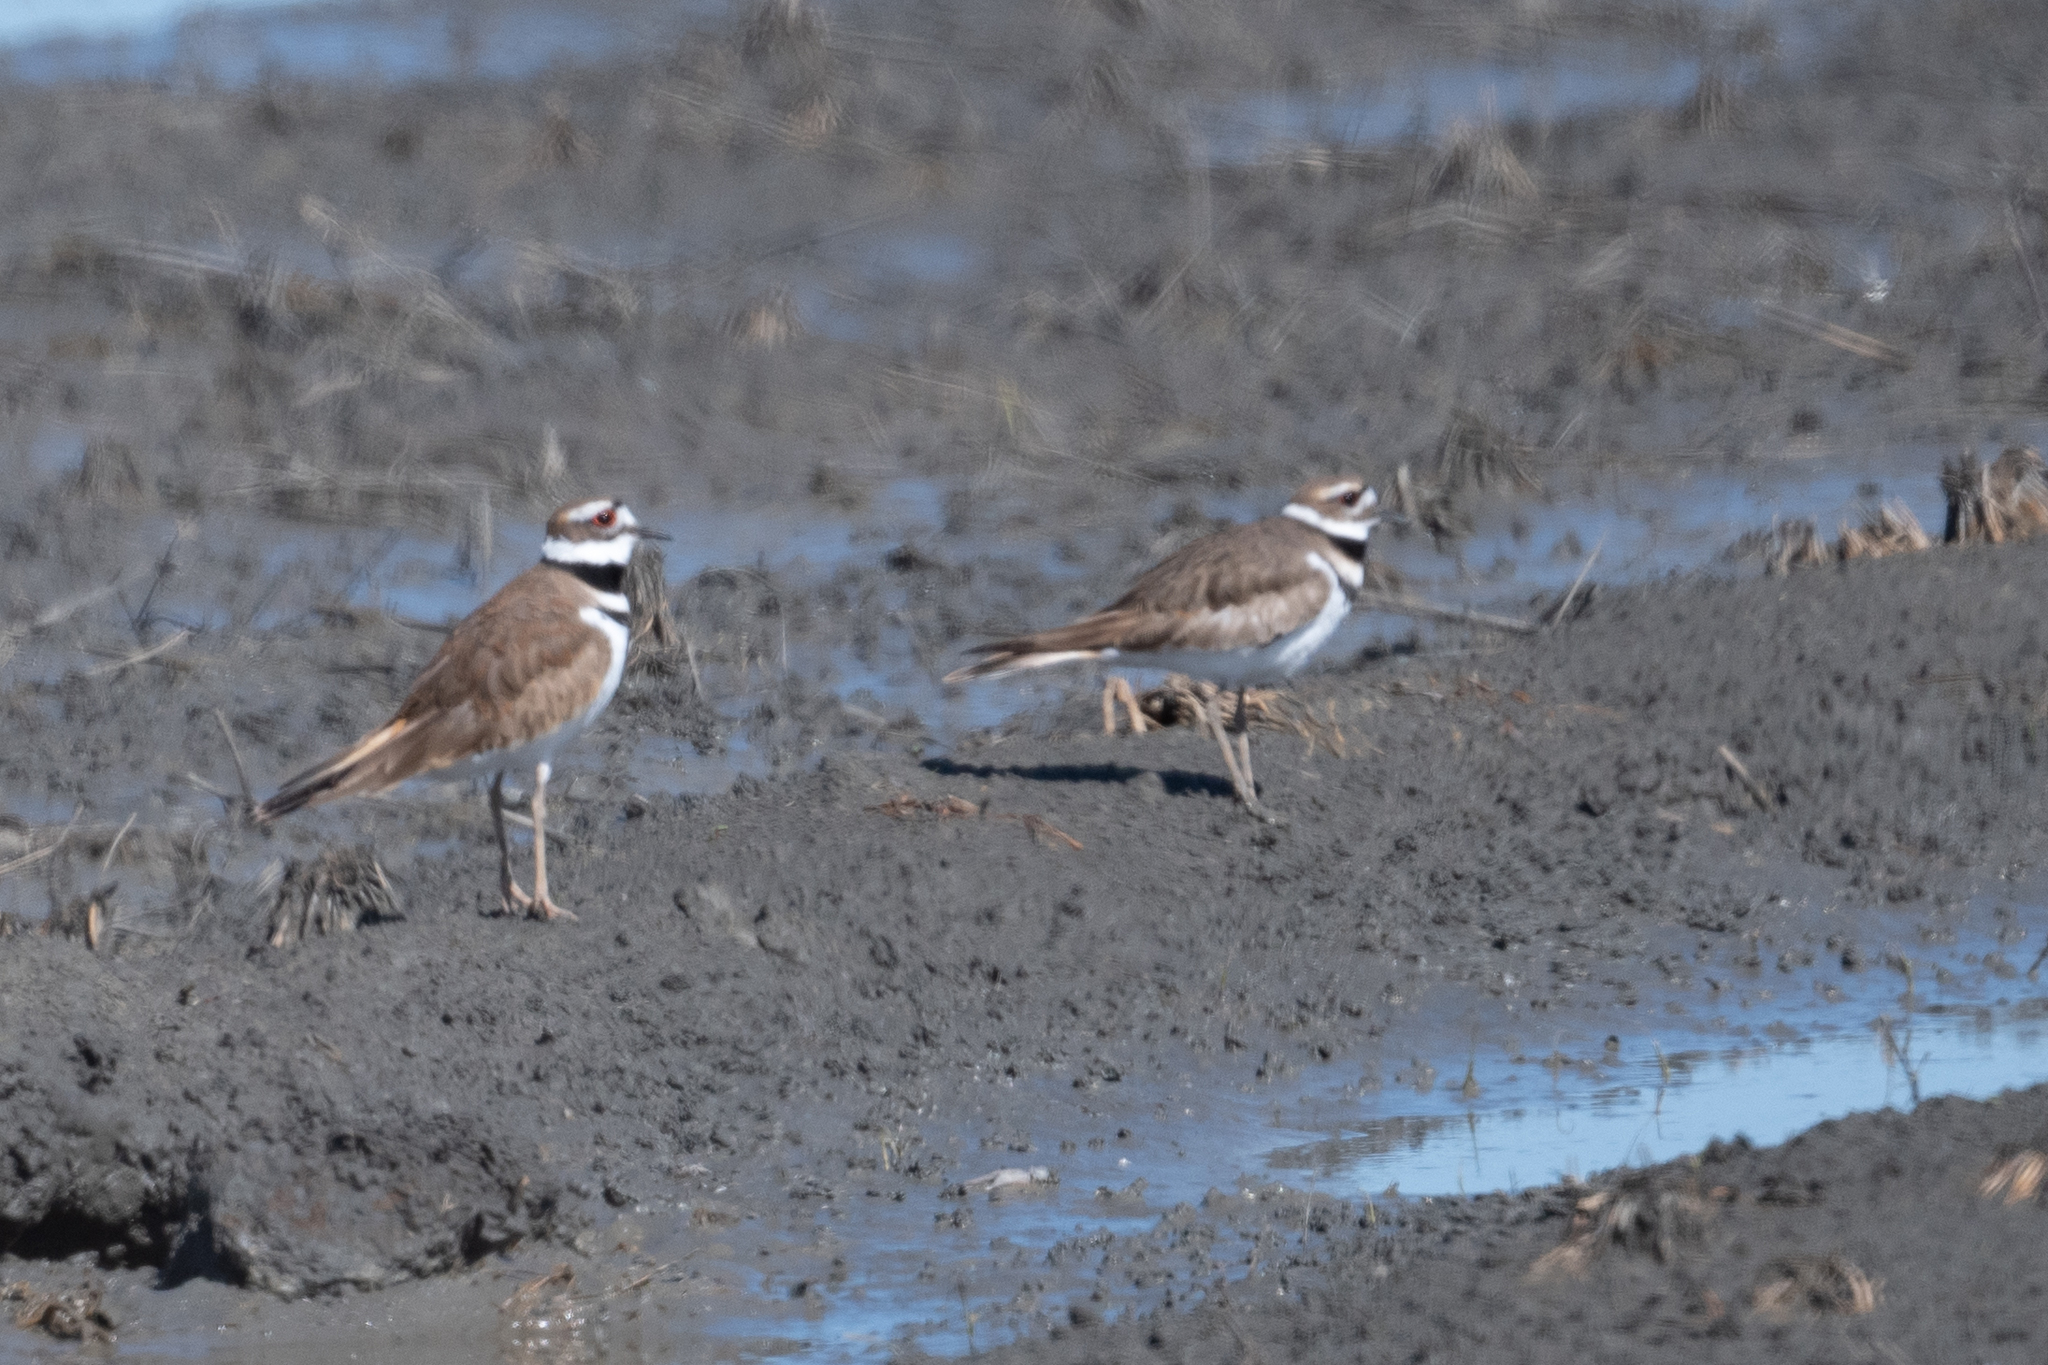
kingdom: Animalia
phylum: Chordata
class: Aves
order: Charadriiformes
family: Charadriidae
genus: Charadrius
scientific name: Charadrius vociferus
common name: Killdeer
